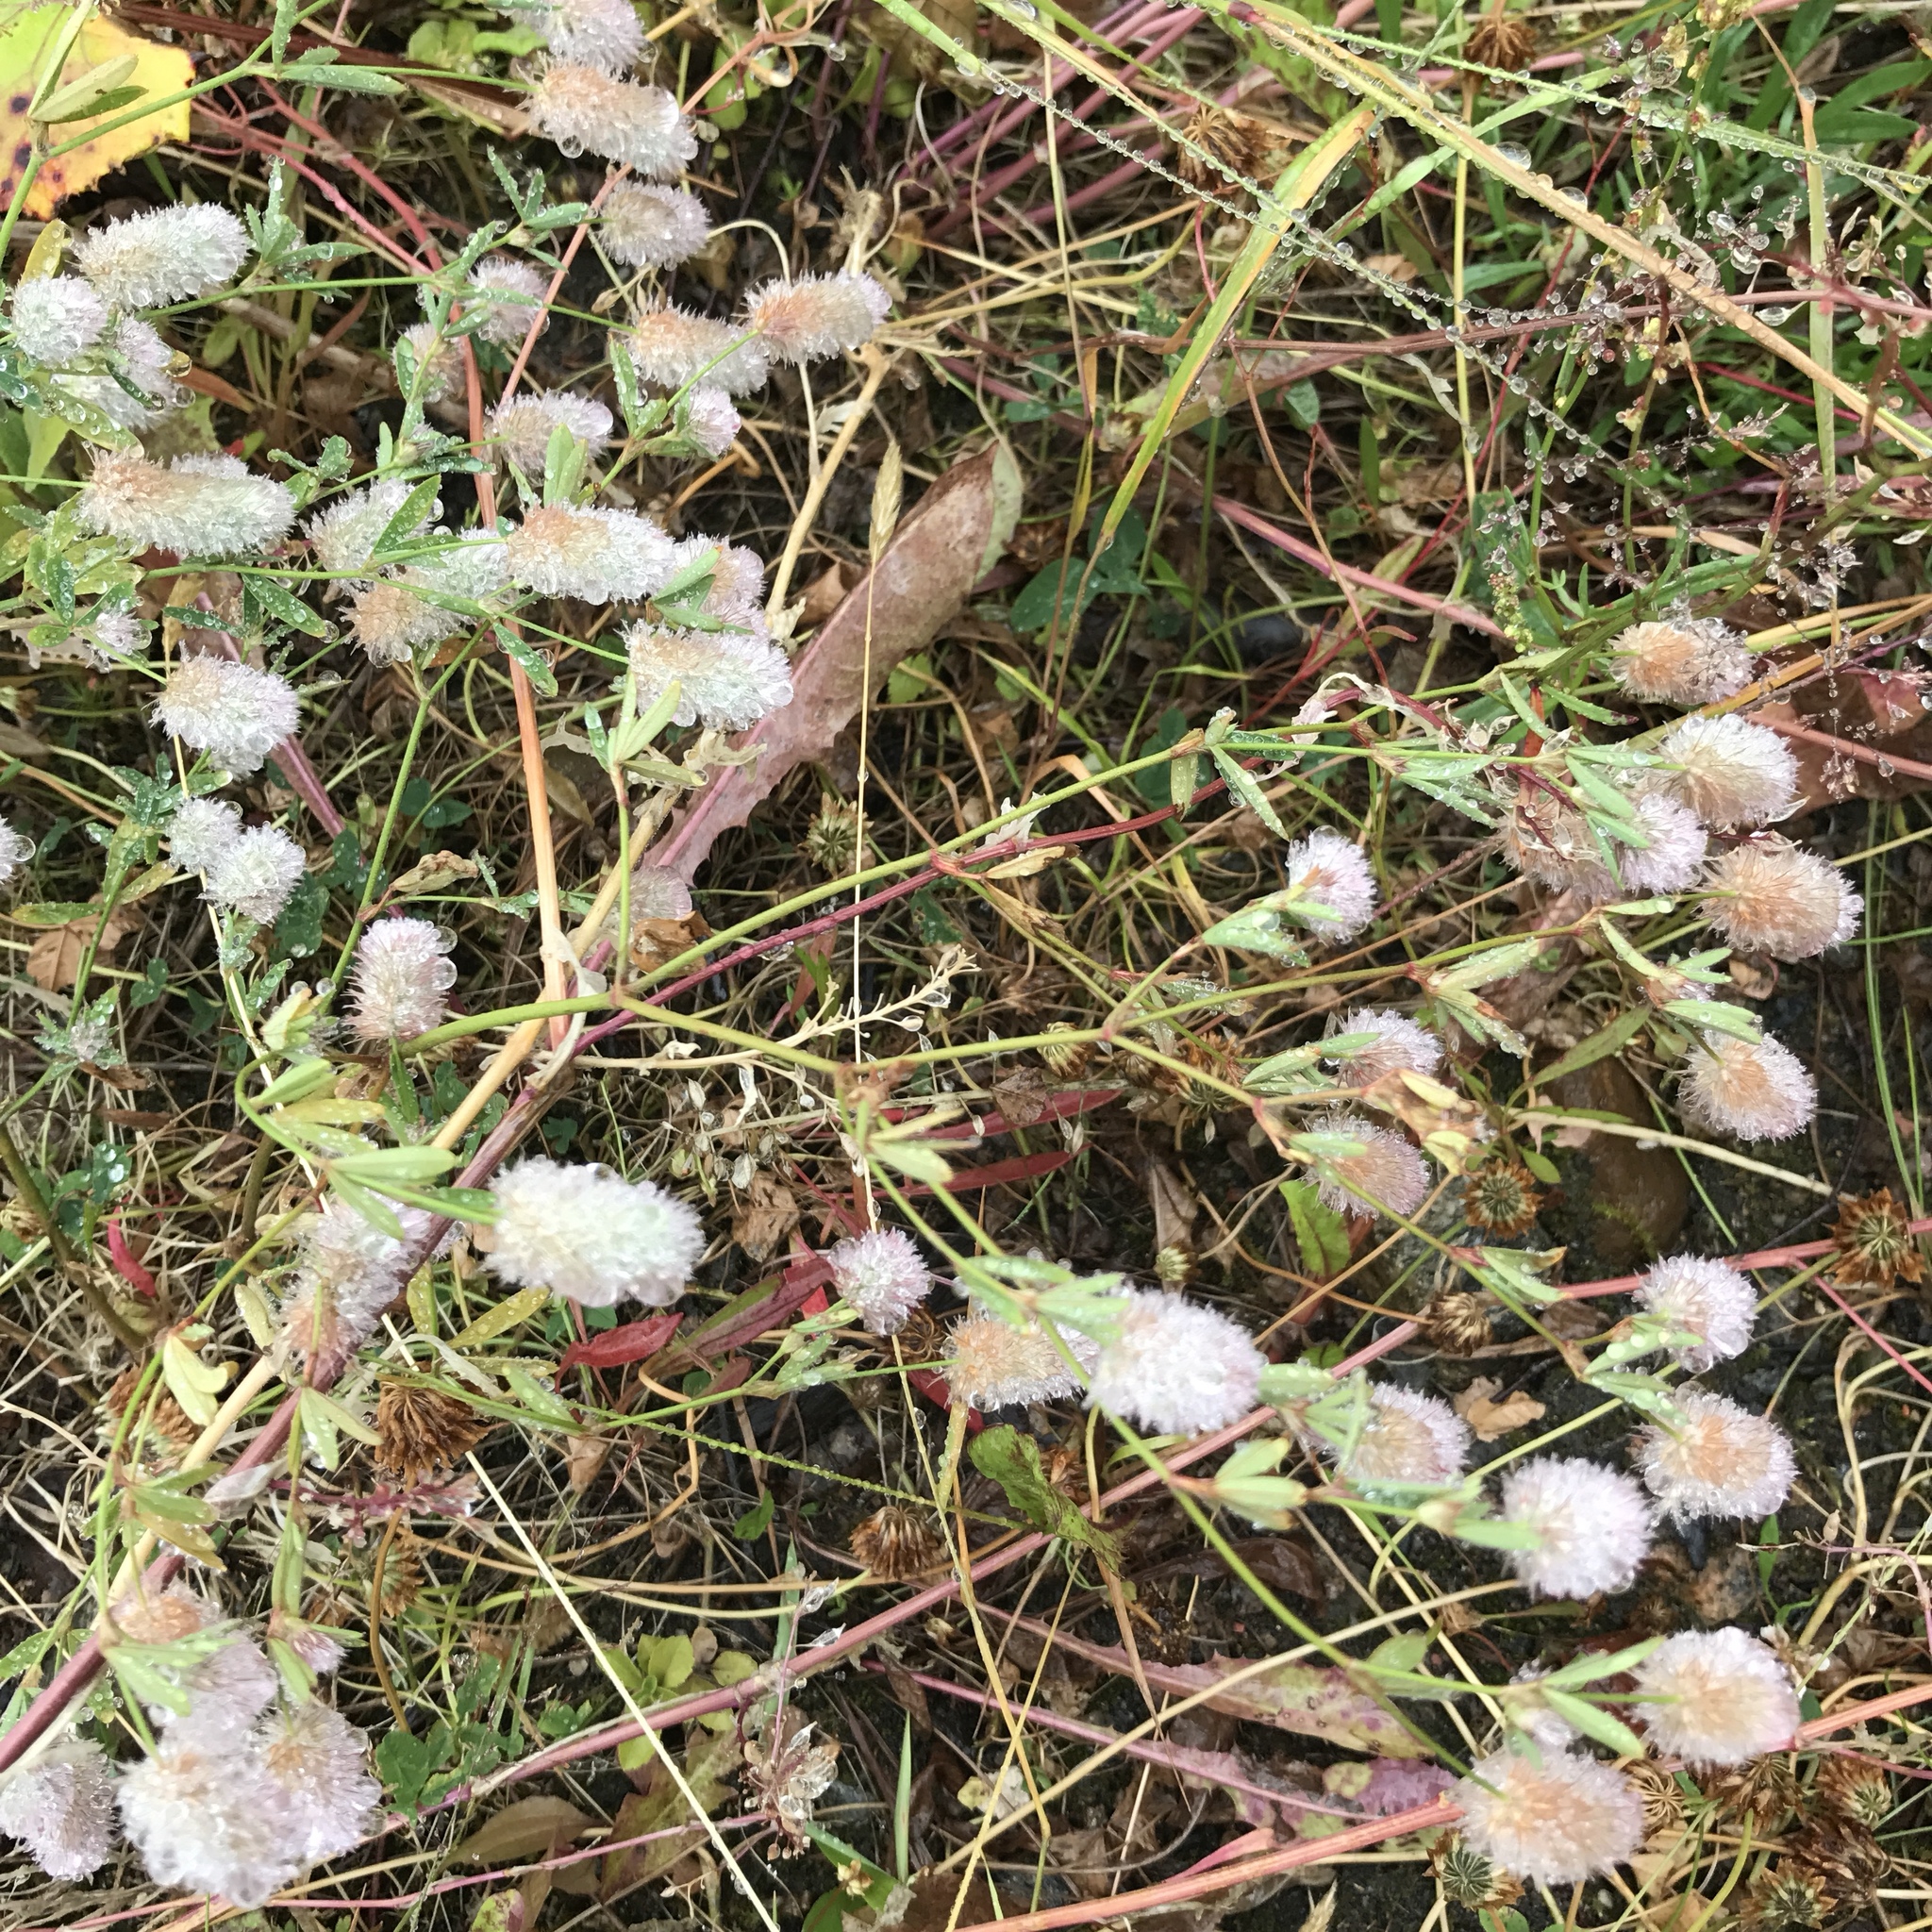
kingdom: Plantae
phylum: Tracheophyta
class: Magnoliopsida
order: Fabales
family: Fabaceae
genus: Trifolium
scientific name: Trifolium arvense
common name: Hare's-foot clover
